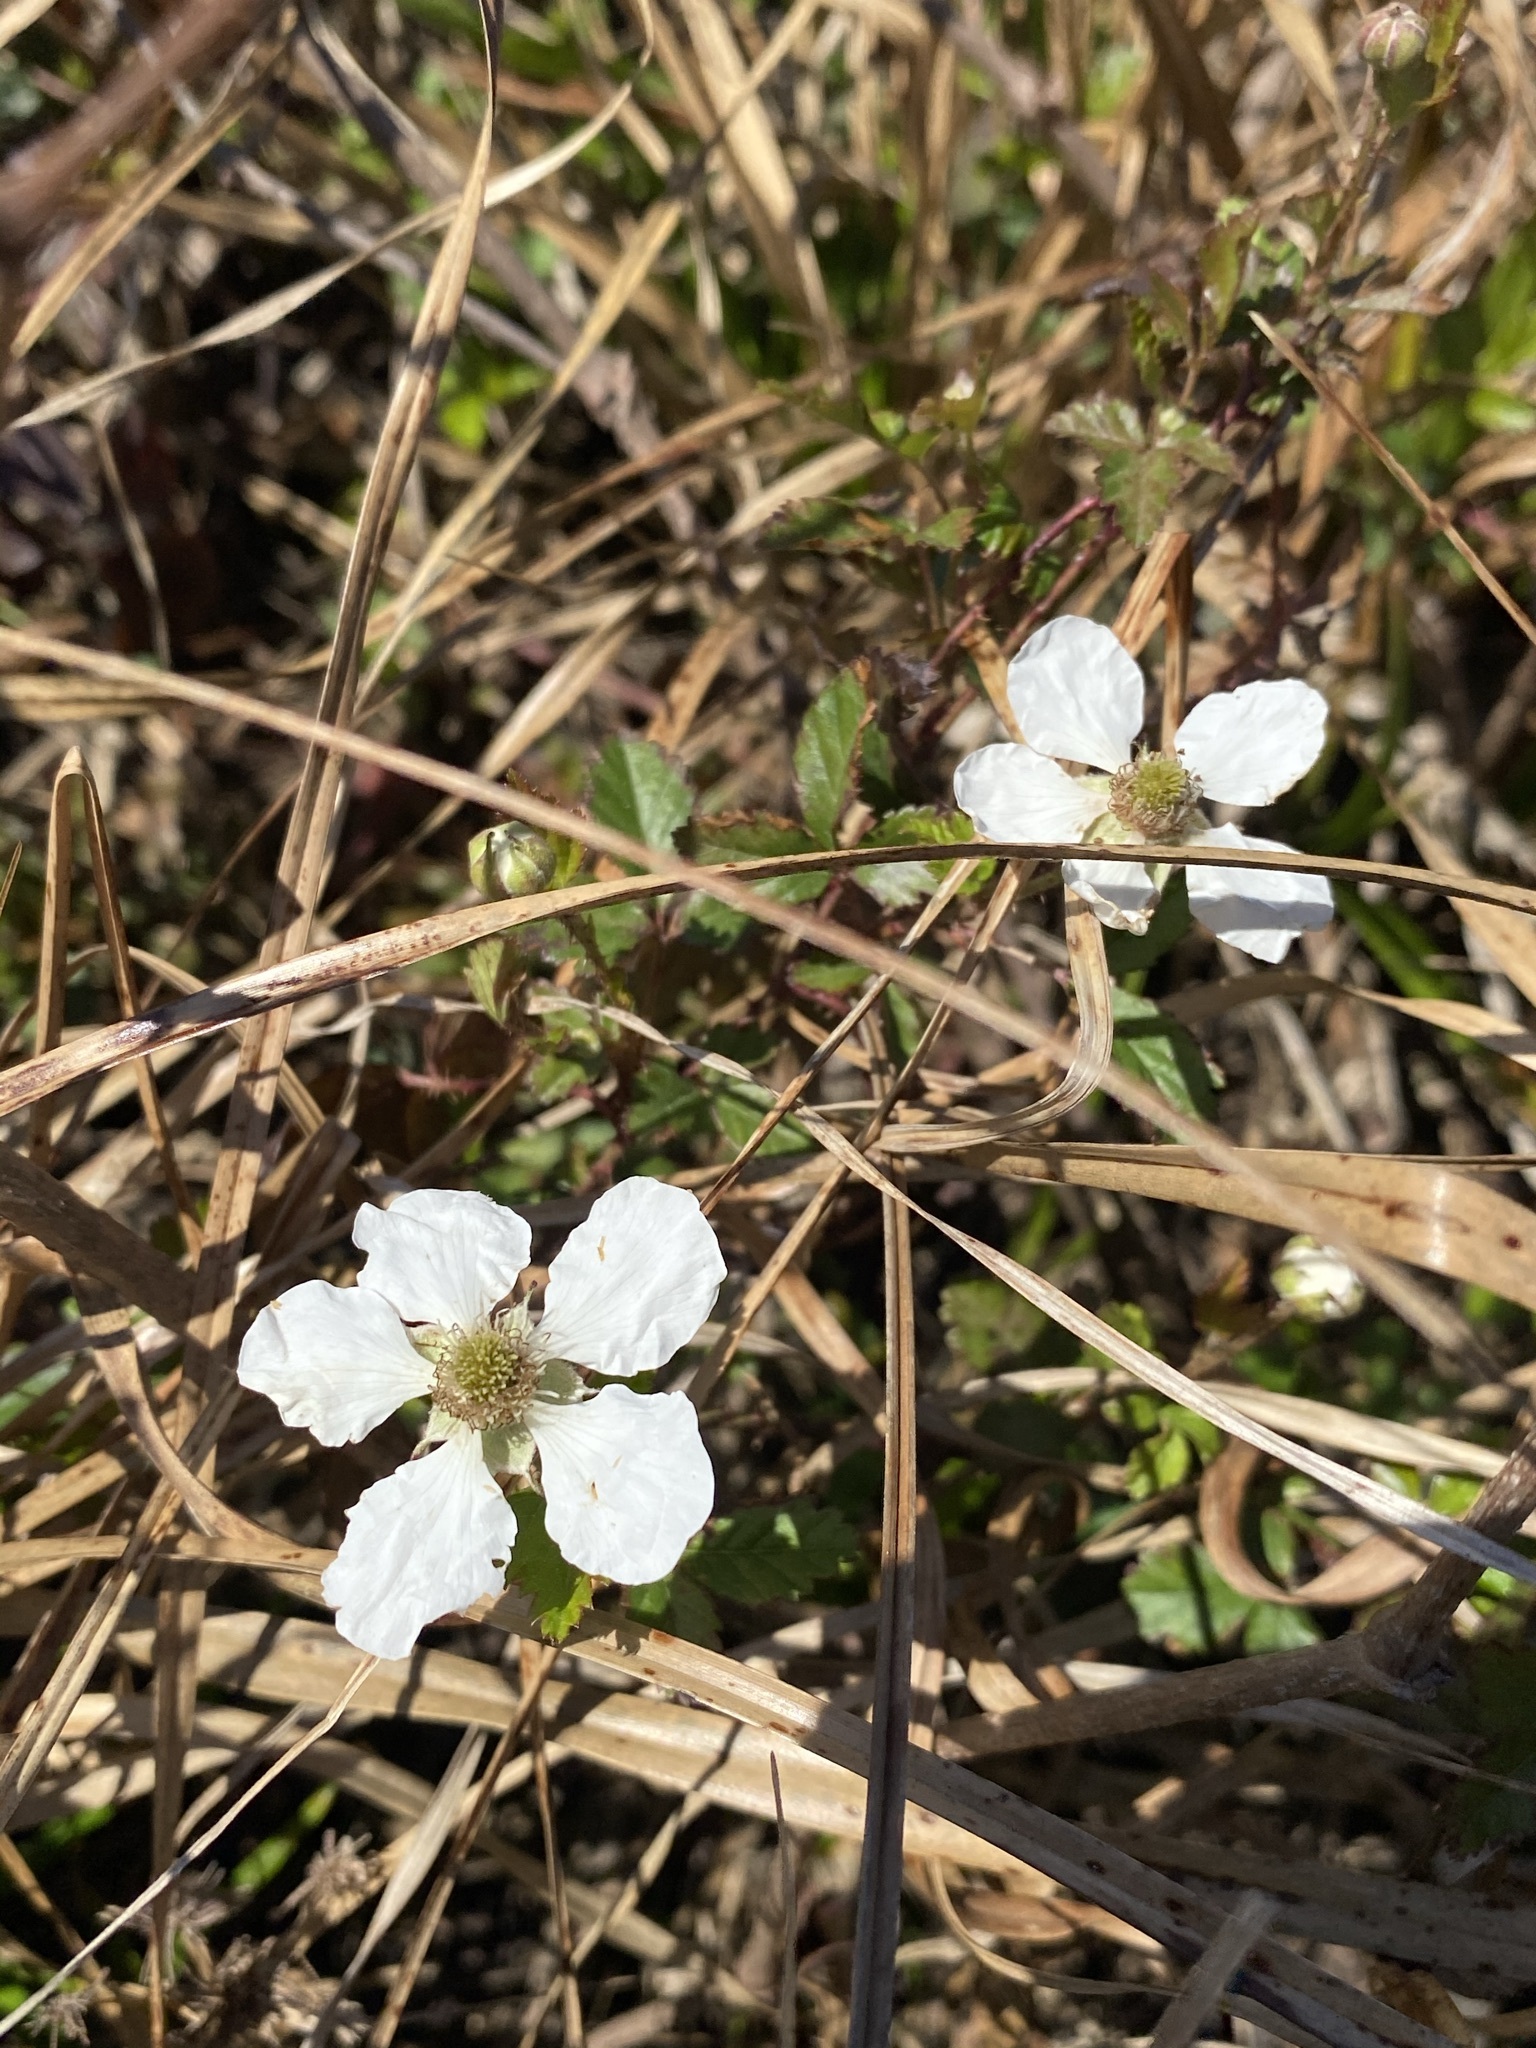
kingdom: Plantae
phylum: Tracheophyta
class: Magnoliopsida
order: Rosales
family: Rosaceae
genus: Rubus
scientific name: Rubus trivialis
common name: Southern dewberry
